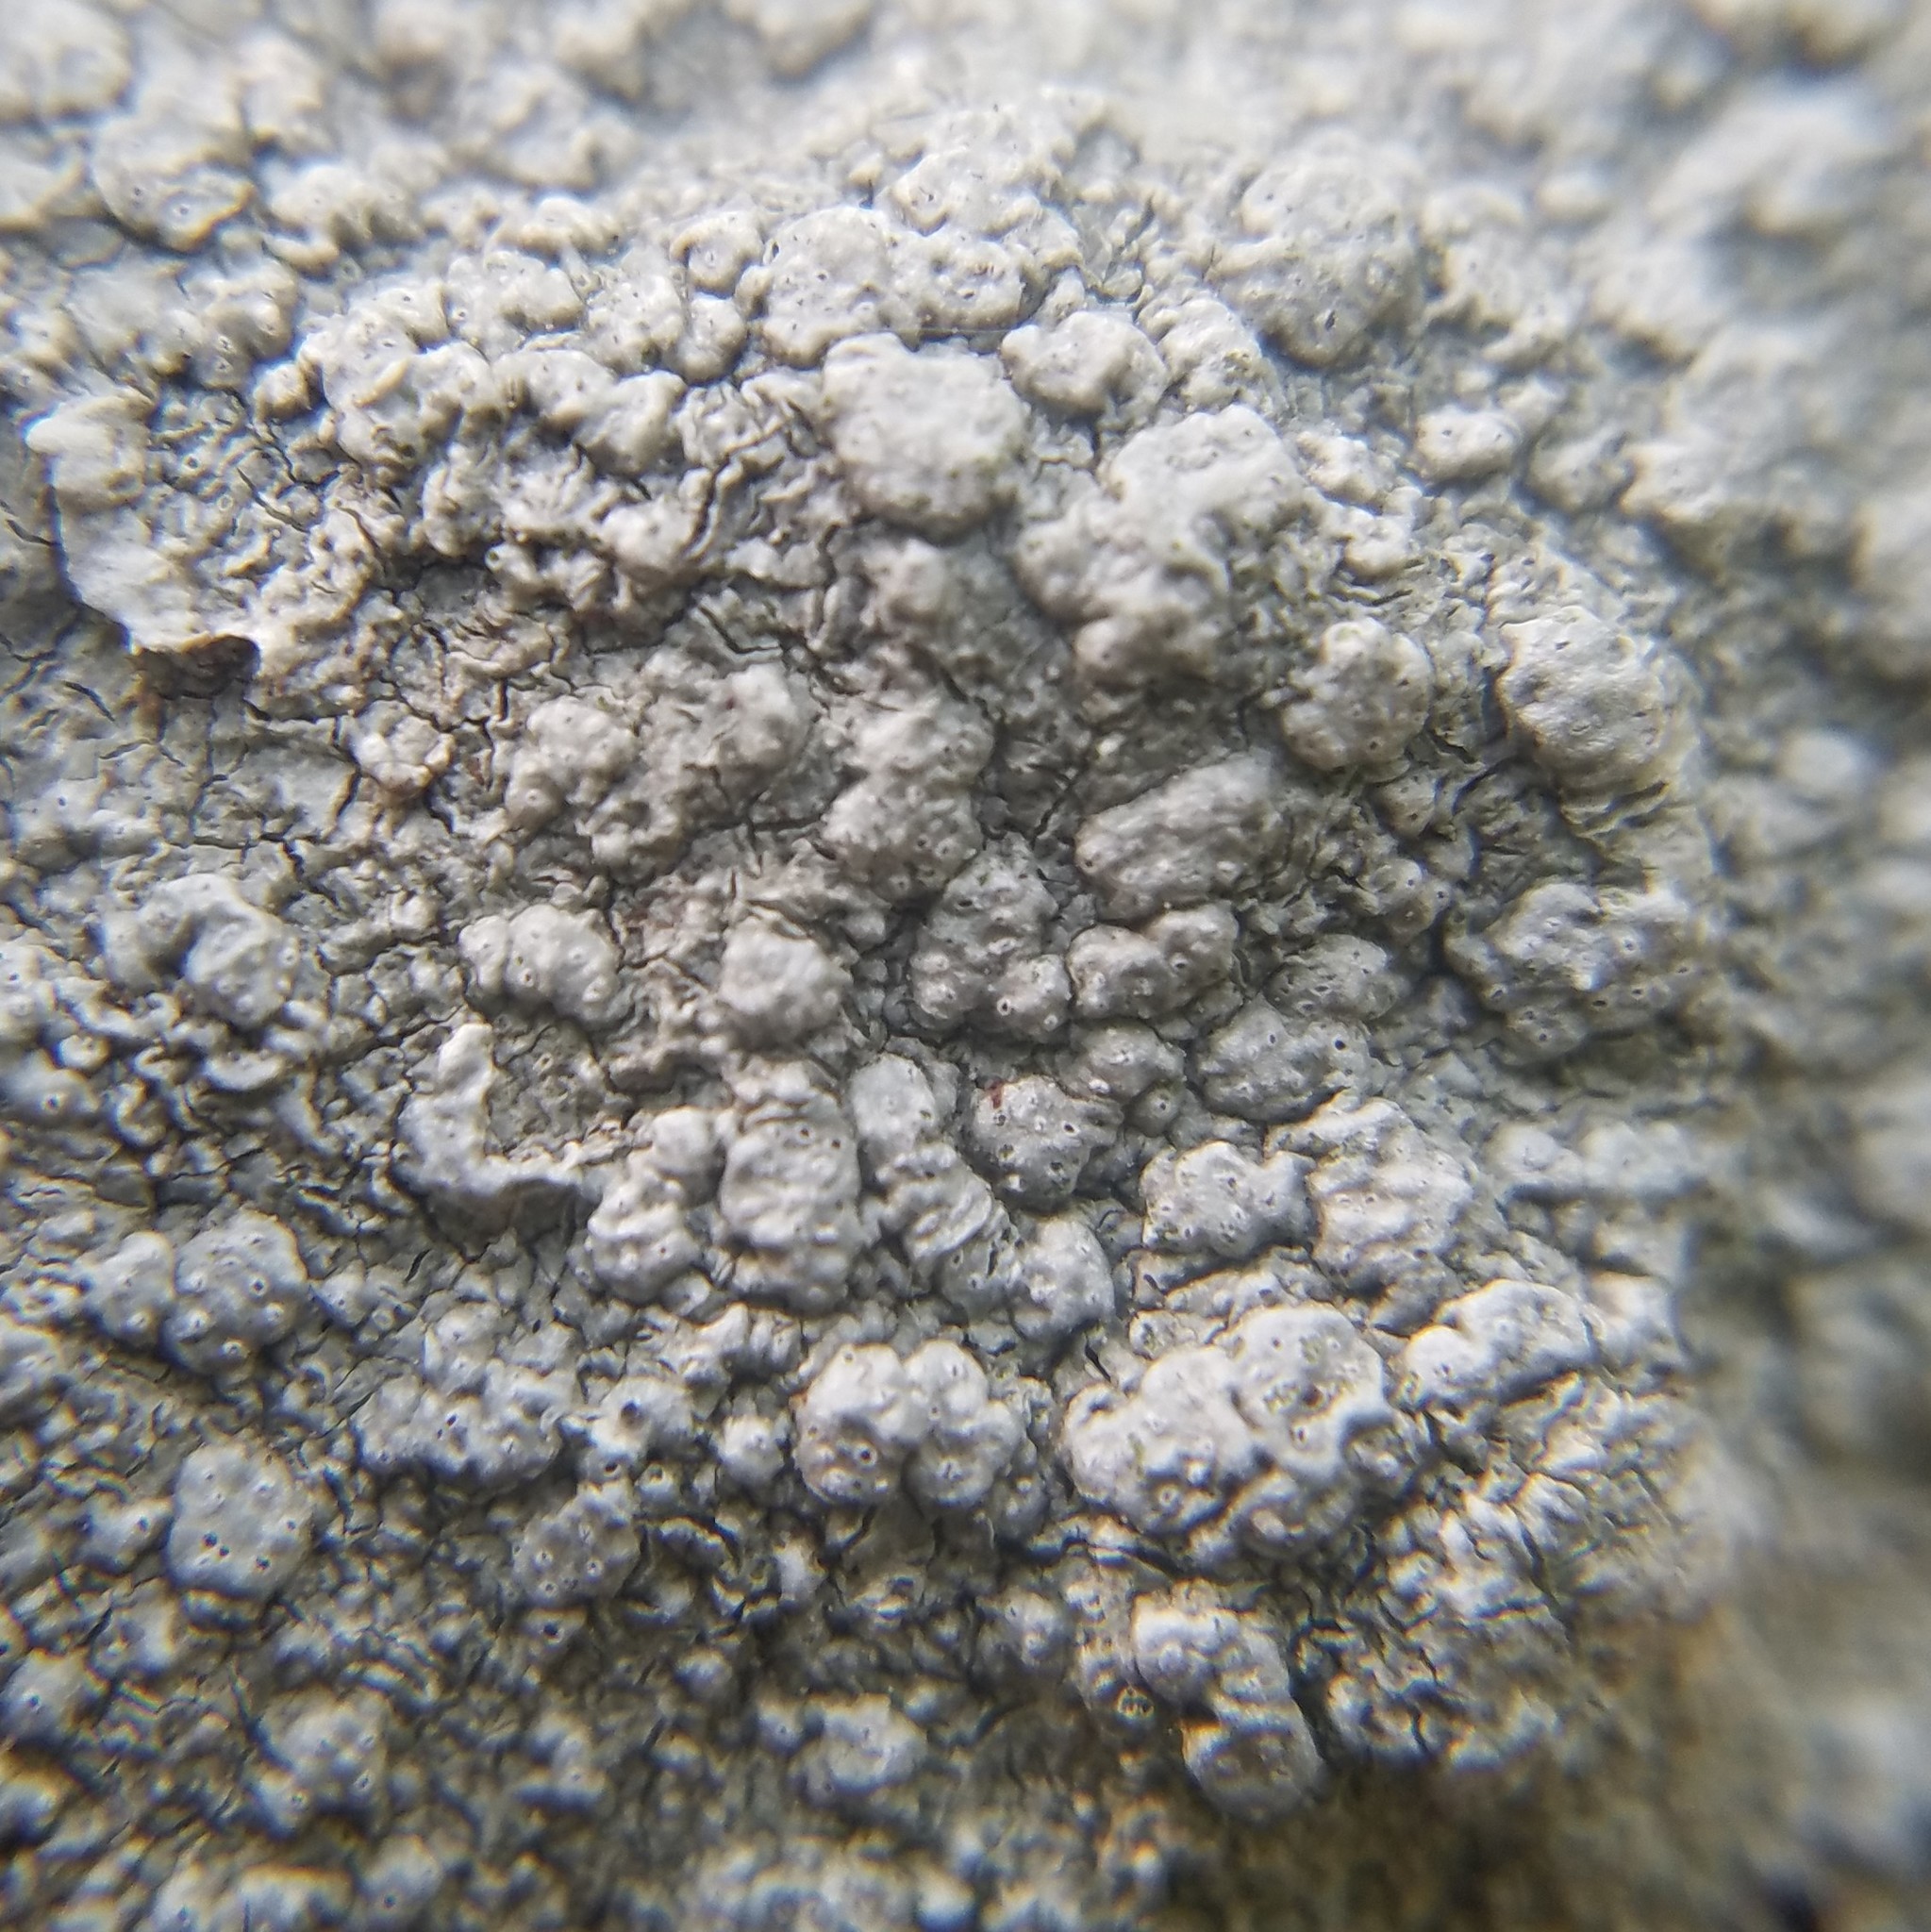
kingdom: Fungi
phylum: Ascomycota
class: Lecanoromycetes
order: Pertusariales
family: Pertusariaceae
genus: Pertusaria
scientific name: Pertusaria plittiana
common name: Rock wart lichen
